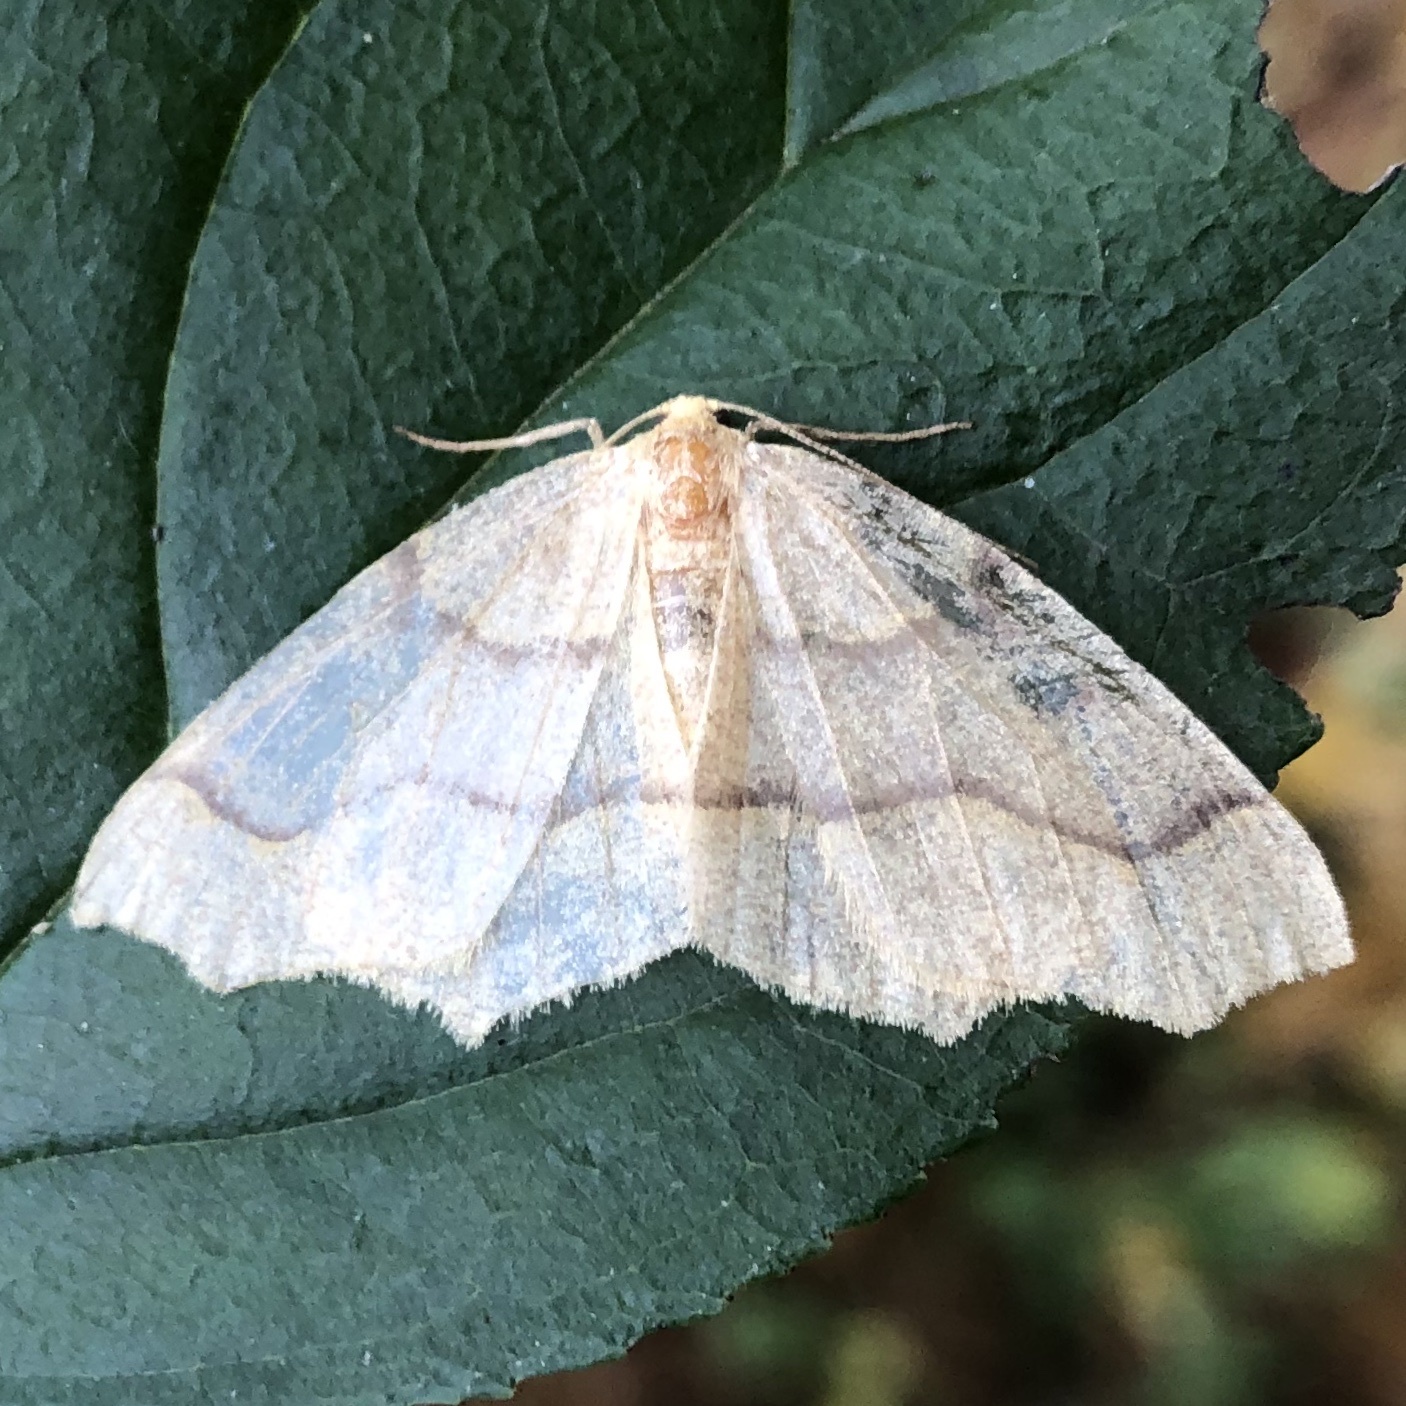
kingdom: Animalia
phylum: Arthropoda
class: Insecta
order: Lepidoptera
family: Geometridae
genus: Lambdina
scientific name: Lambdina fiscellaria
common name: Hemlock looper
